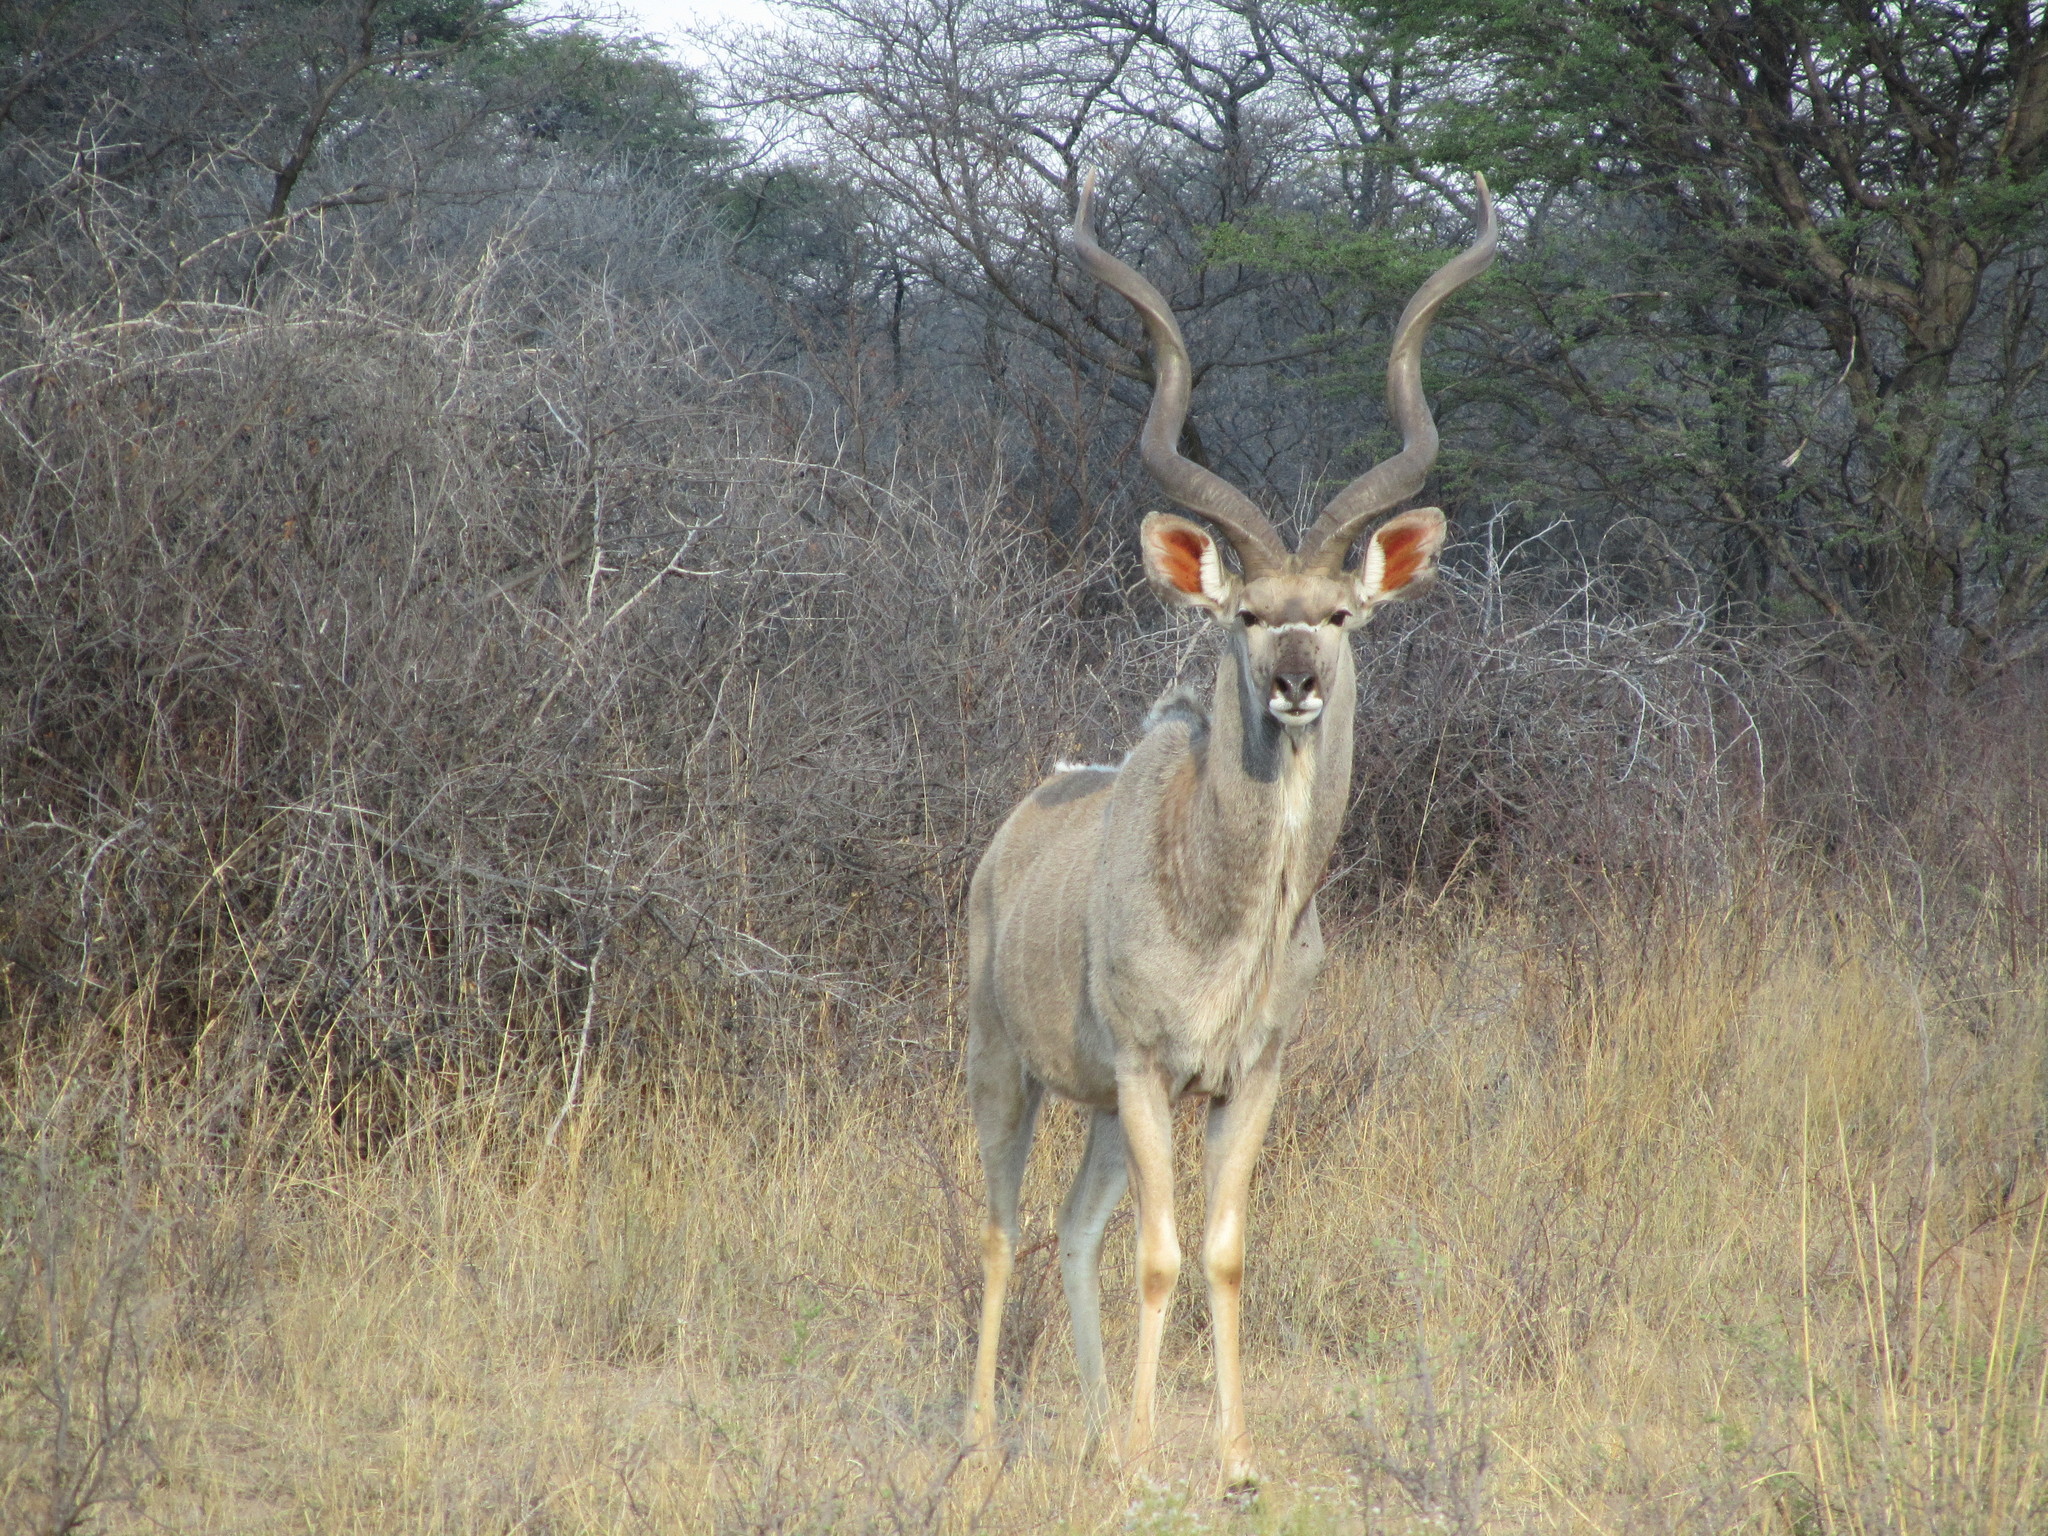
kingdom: Animalia
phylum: Chordata
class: Mammalia
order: Artiodactyla
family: Bovidae
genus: Tragelaphus
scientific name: Tragelaphus strepsiceros
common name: Greater kudu
